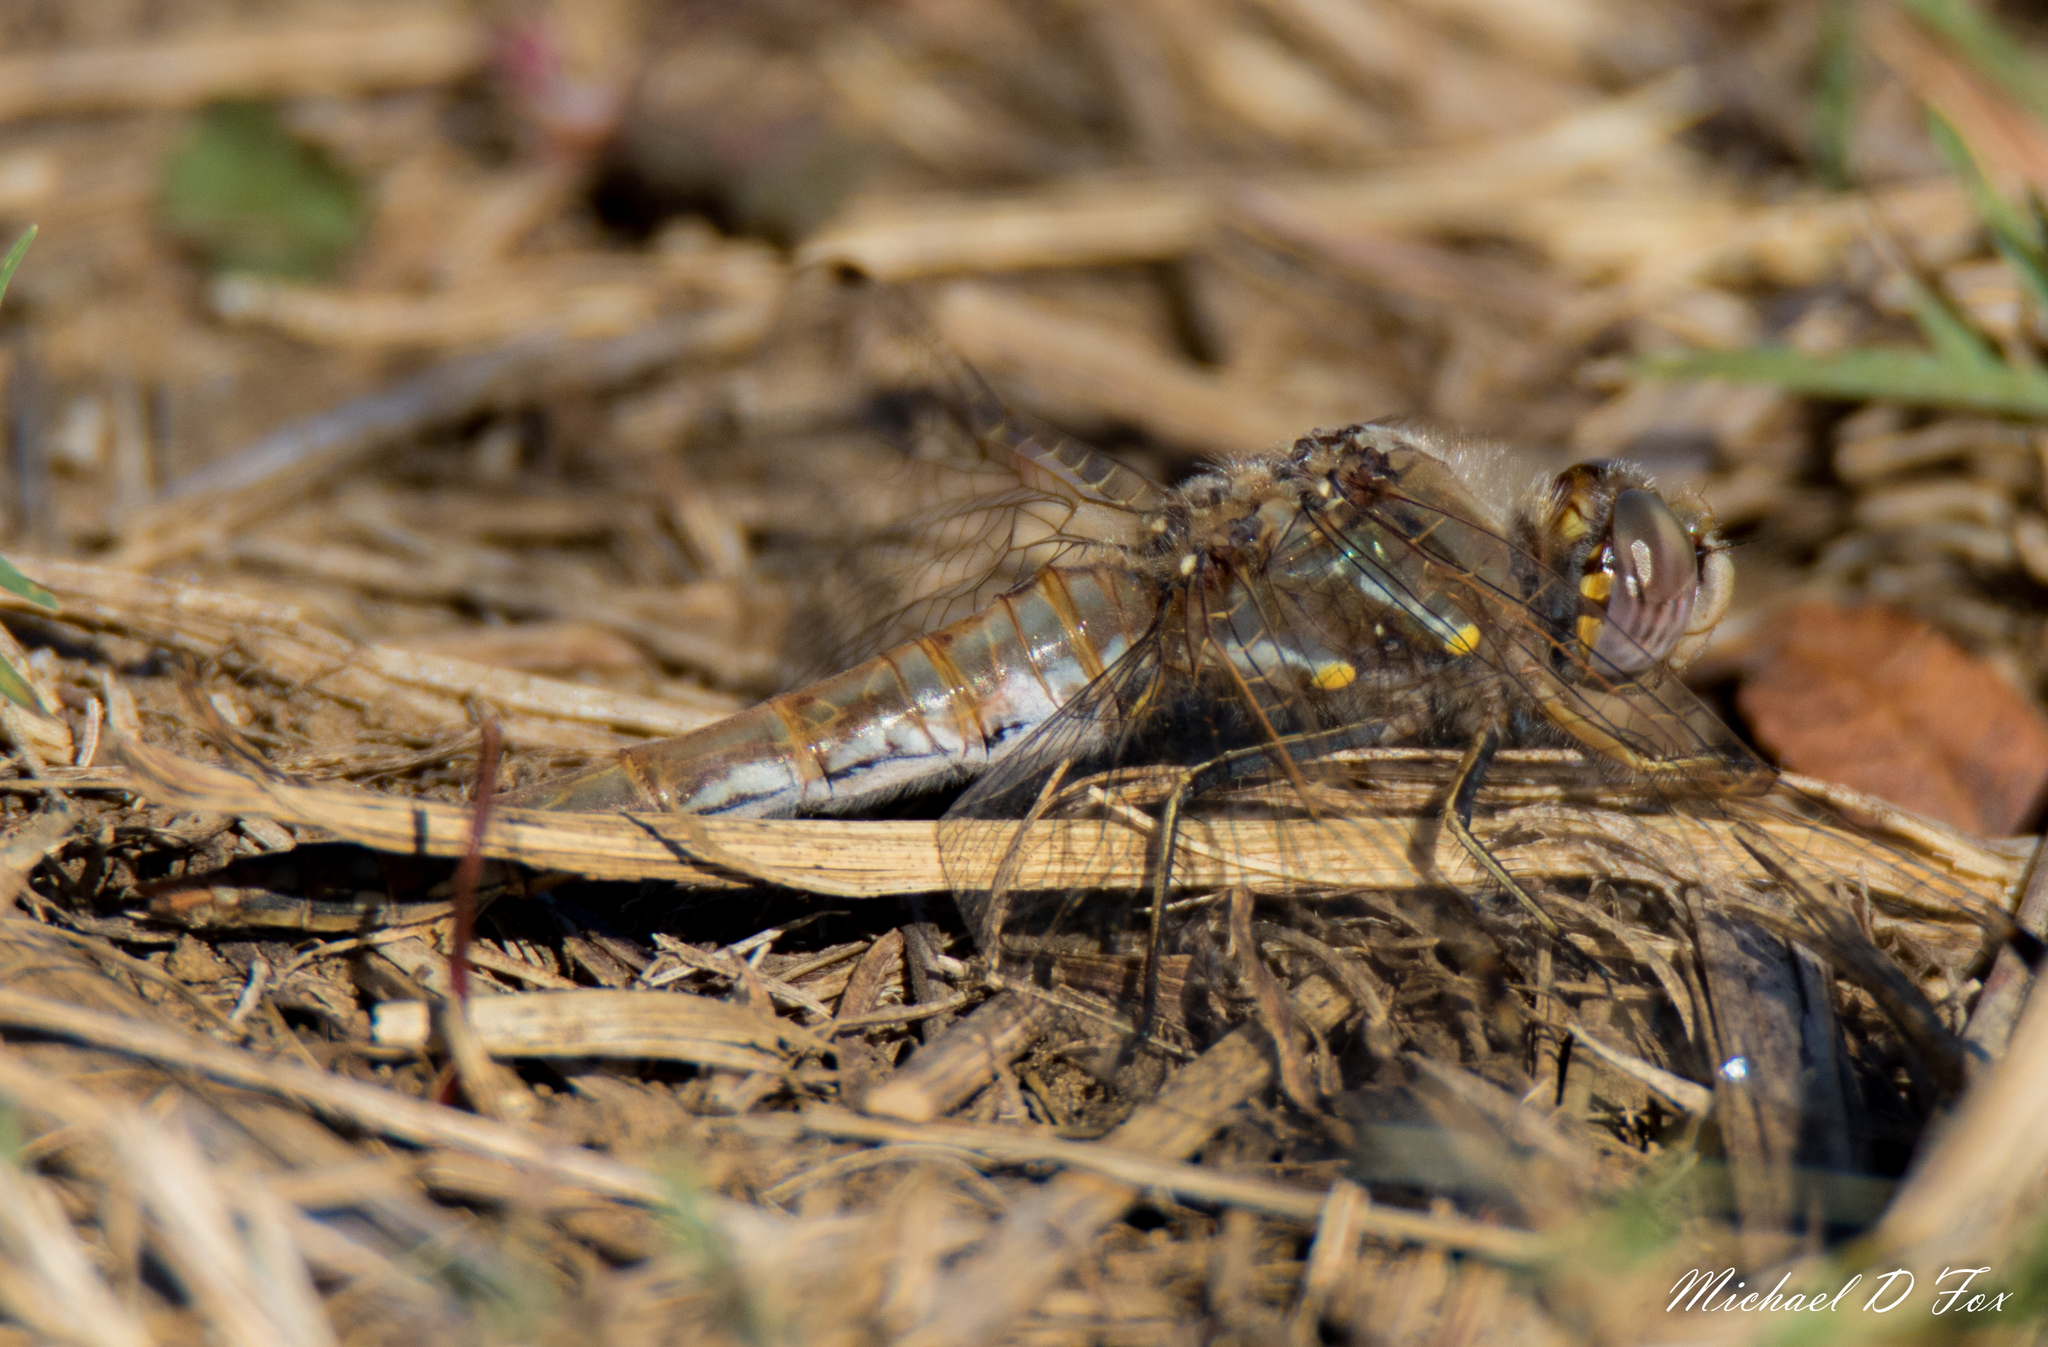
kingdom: Animalia
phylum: Arthropoda
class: Insecta
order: Odonata
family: Libellulidae
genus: Sympetrum
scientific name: Sympetrum corruptum
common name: Variegated meadowhawk
